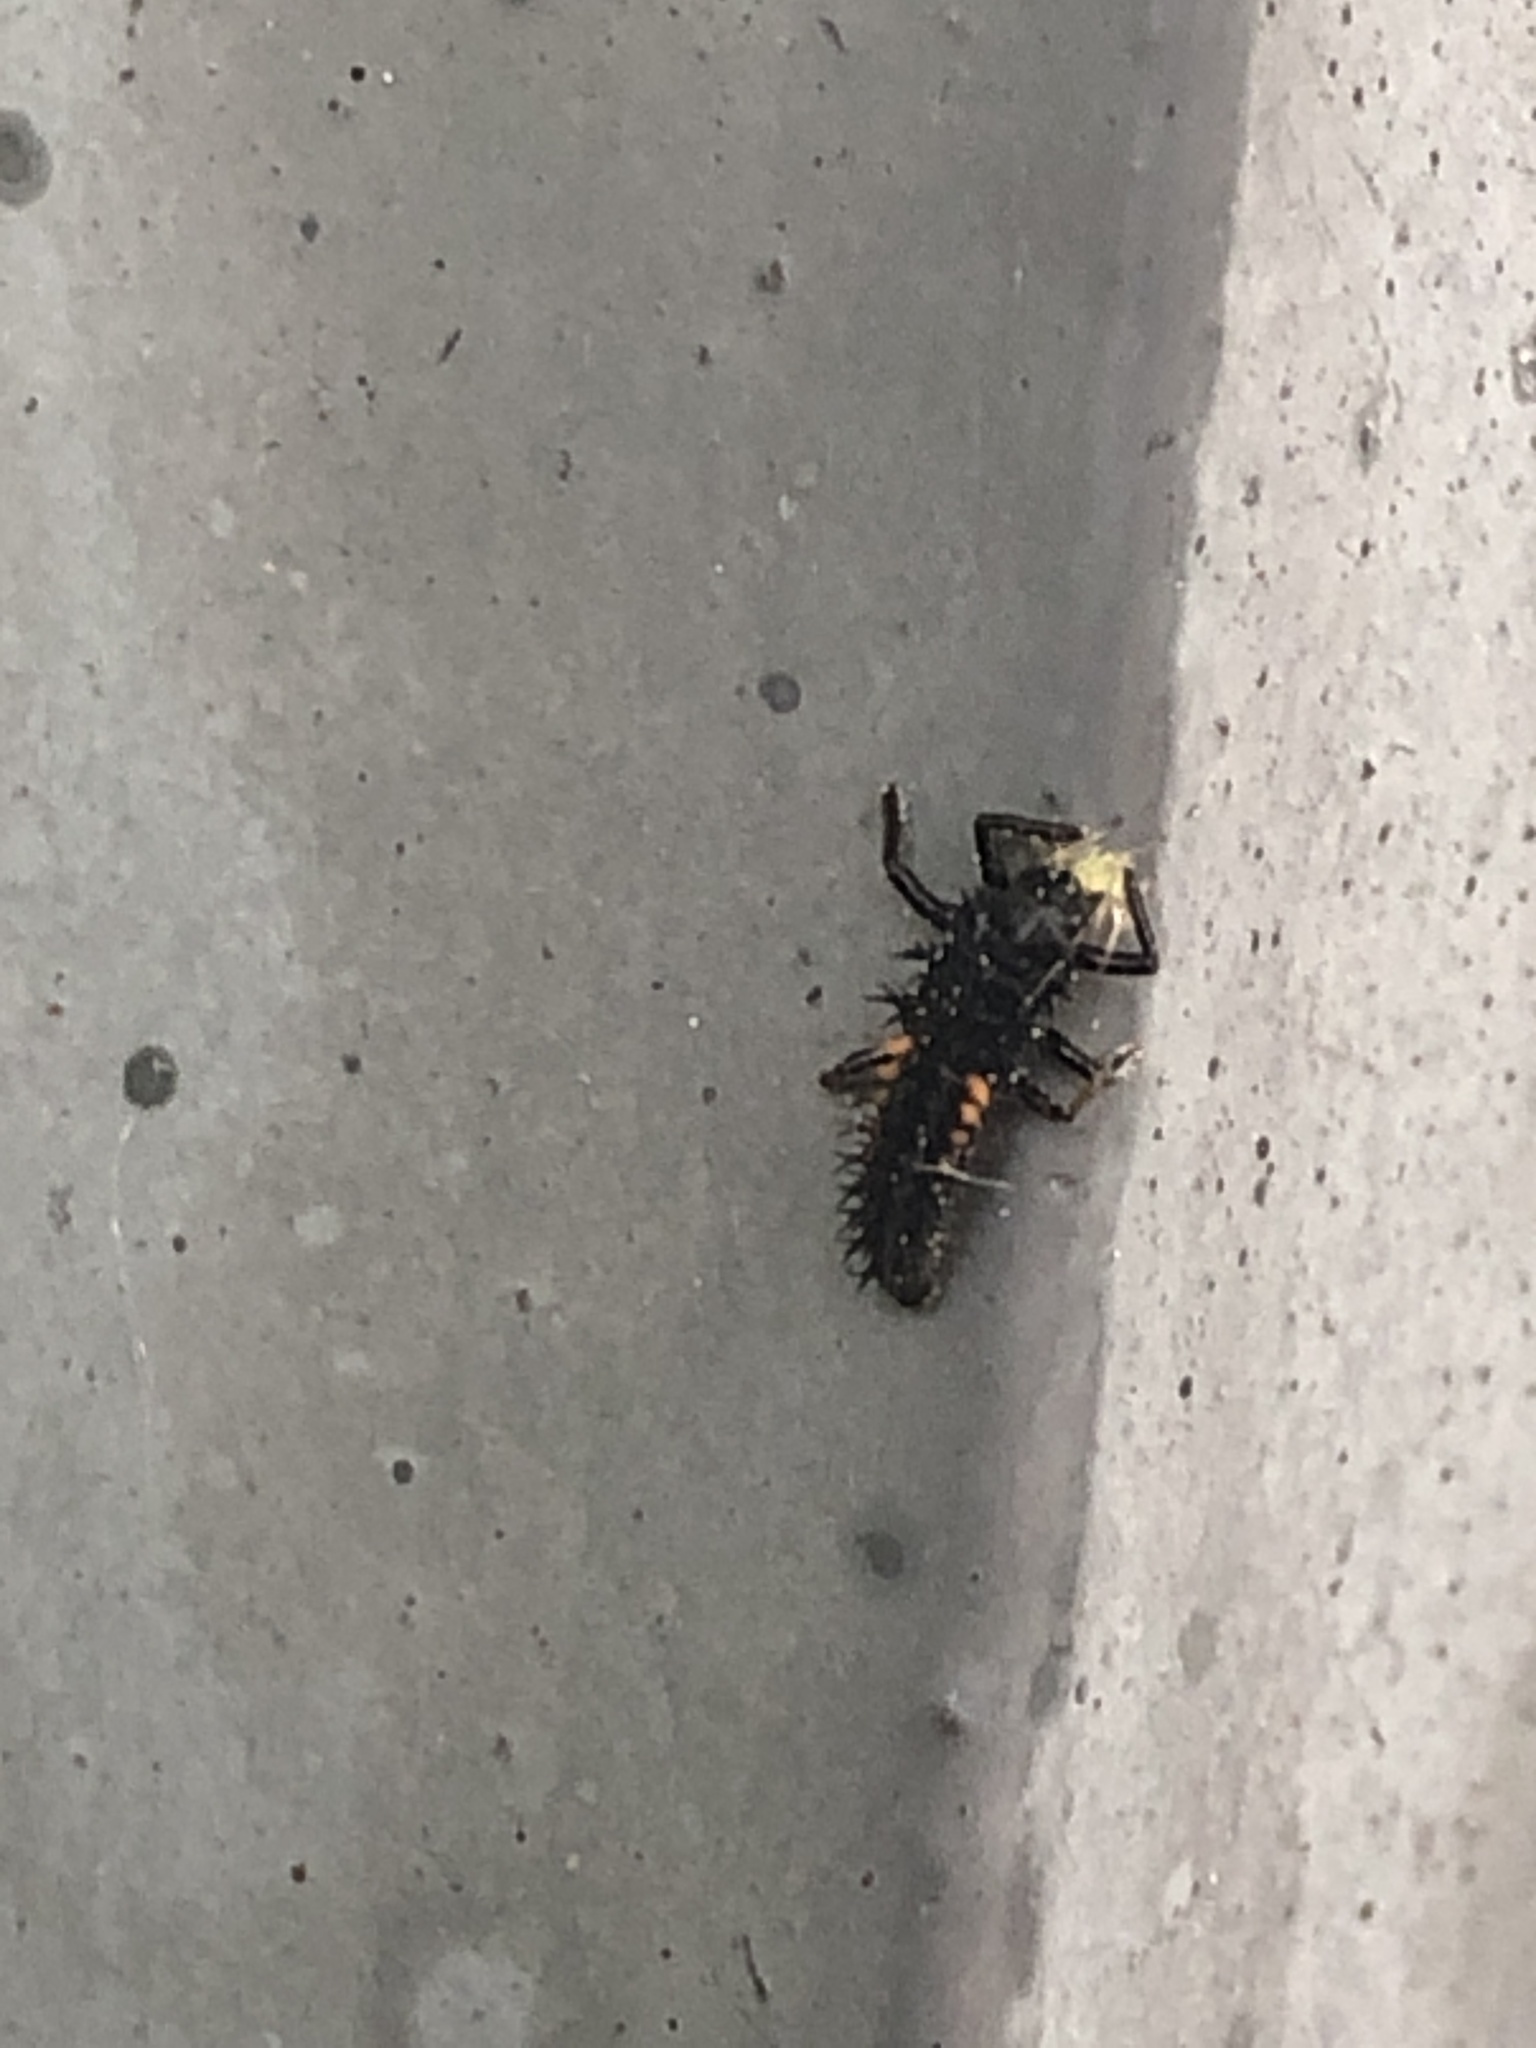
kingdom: Animalia
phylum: Arthropoda
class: Insecta
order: Coleoptera
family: Coccinellidae
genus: Harmonia
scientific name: Harmonia axyridis
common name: Harlequin ladybird
